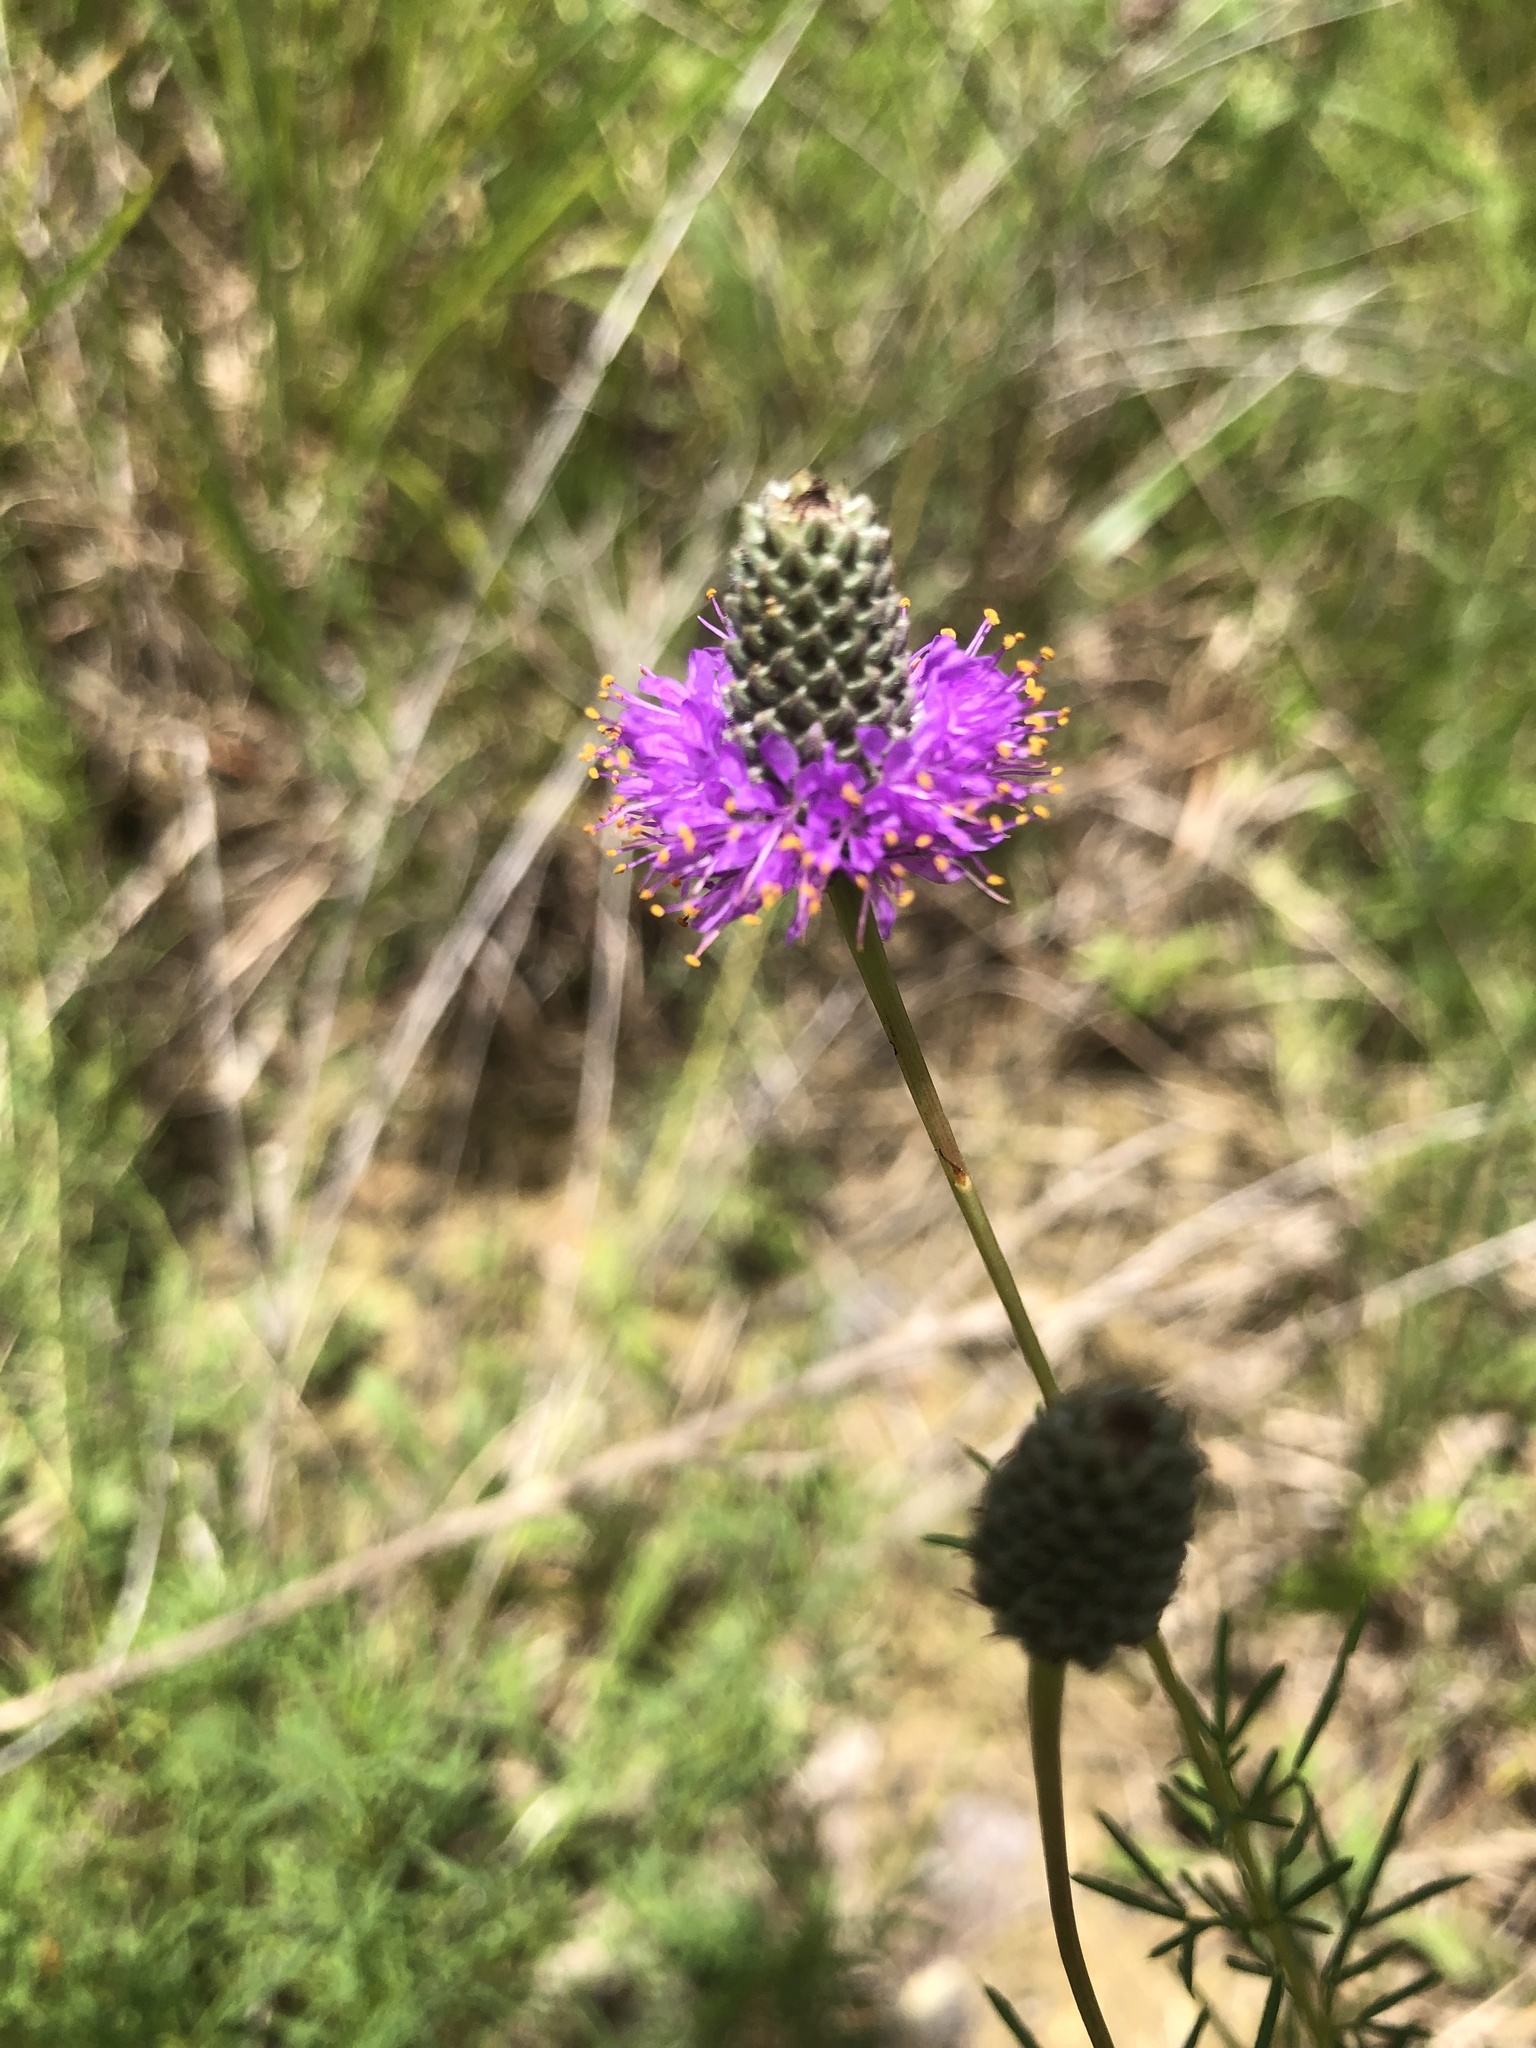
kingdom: Plantae
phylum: Tracheophyta
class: Magnoliopsida
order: Fabales
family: Fabaceae
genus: Dalea
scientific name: Dalea purpurea
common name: Purple prairie-clover
